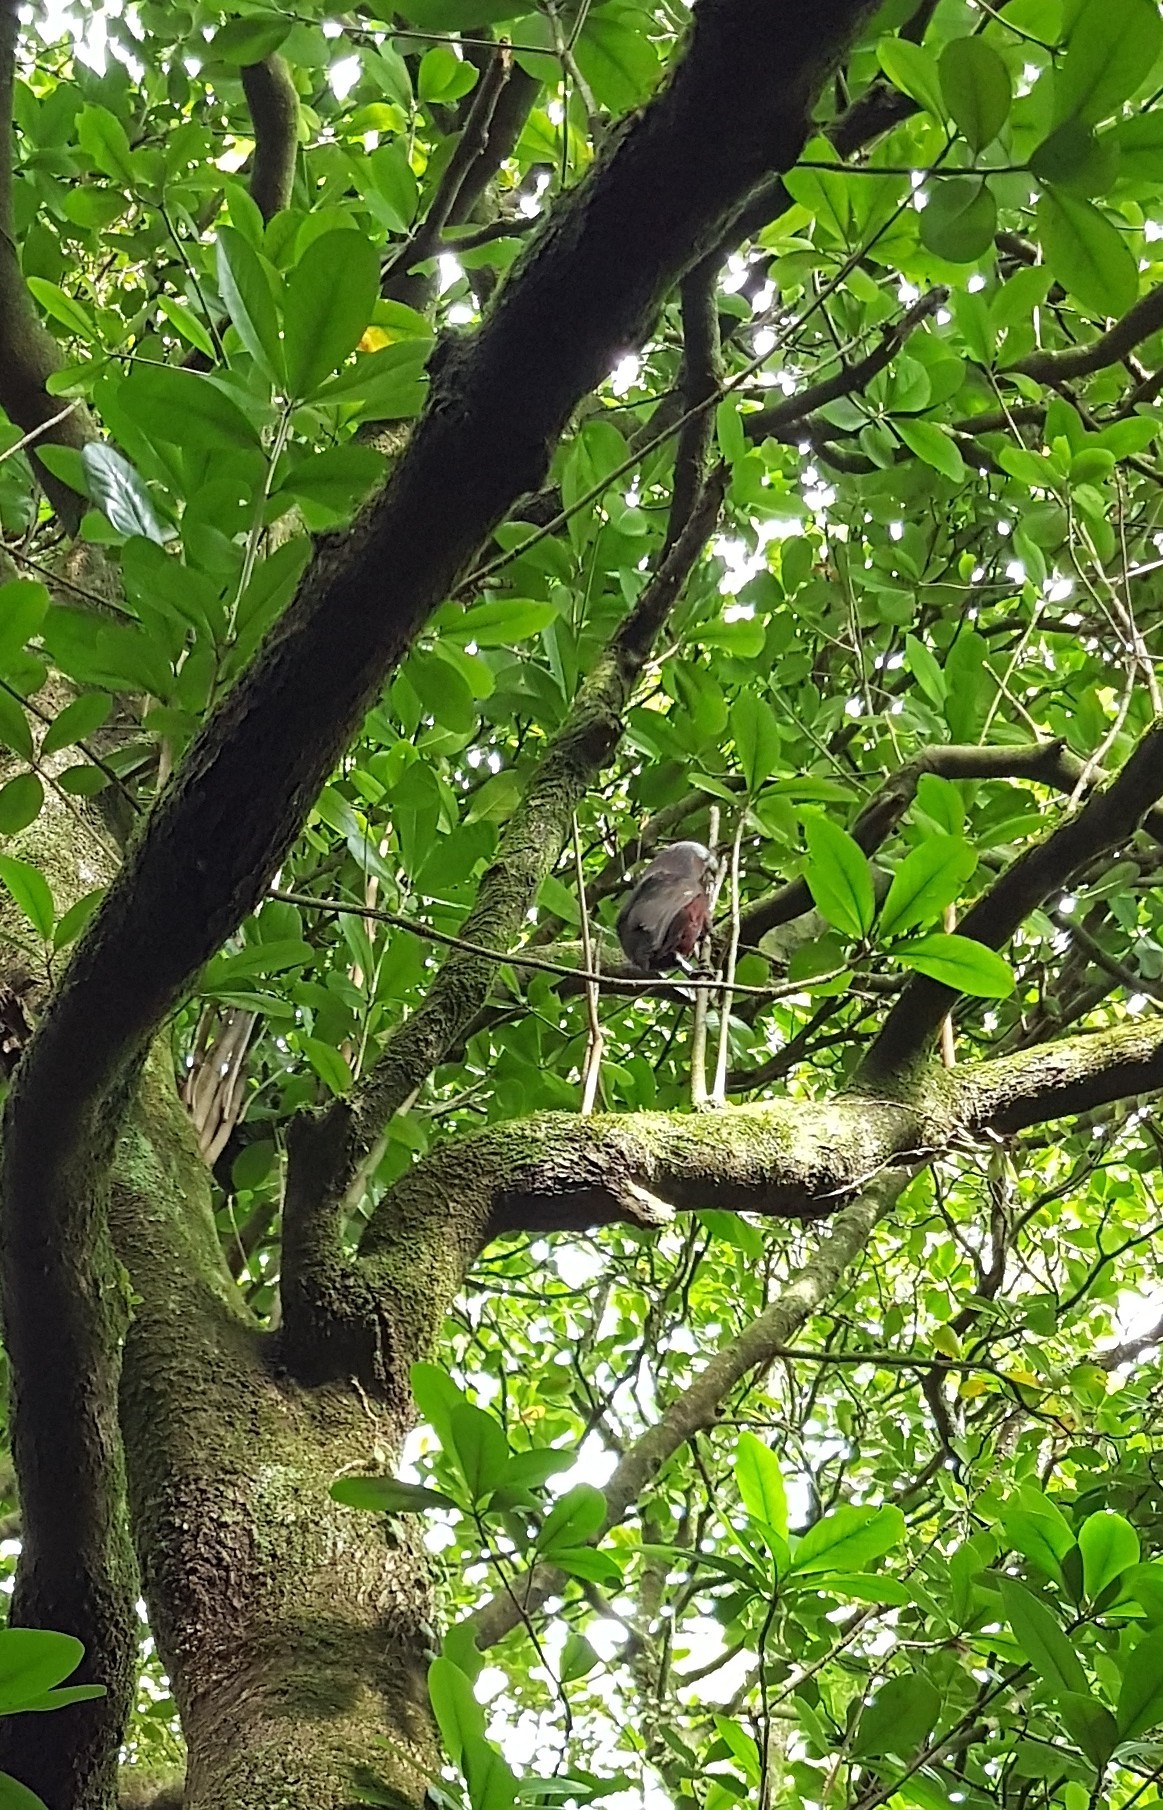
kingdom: Animalia
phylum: Chordata
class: Aves
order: Psittaciformes
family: Psittacidae
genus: Nestor
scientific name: Nestor meridionalis
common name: New zealand kaka
